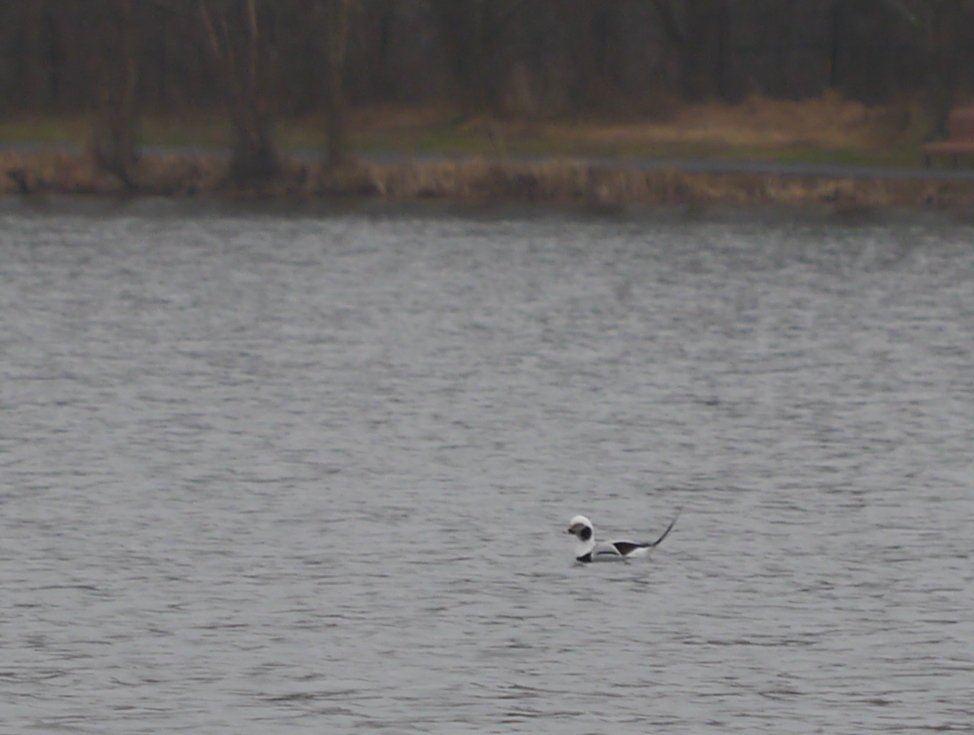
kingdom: Animalia
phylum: Chordata
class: Aves
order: Anseriformes
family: Anatidae
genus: Clangula
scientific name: Clangula hyemalis
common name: Long-tailed duck
